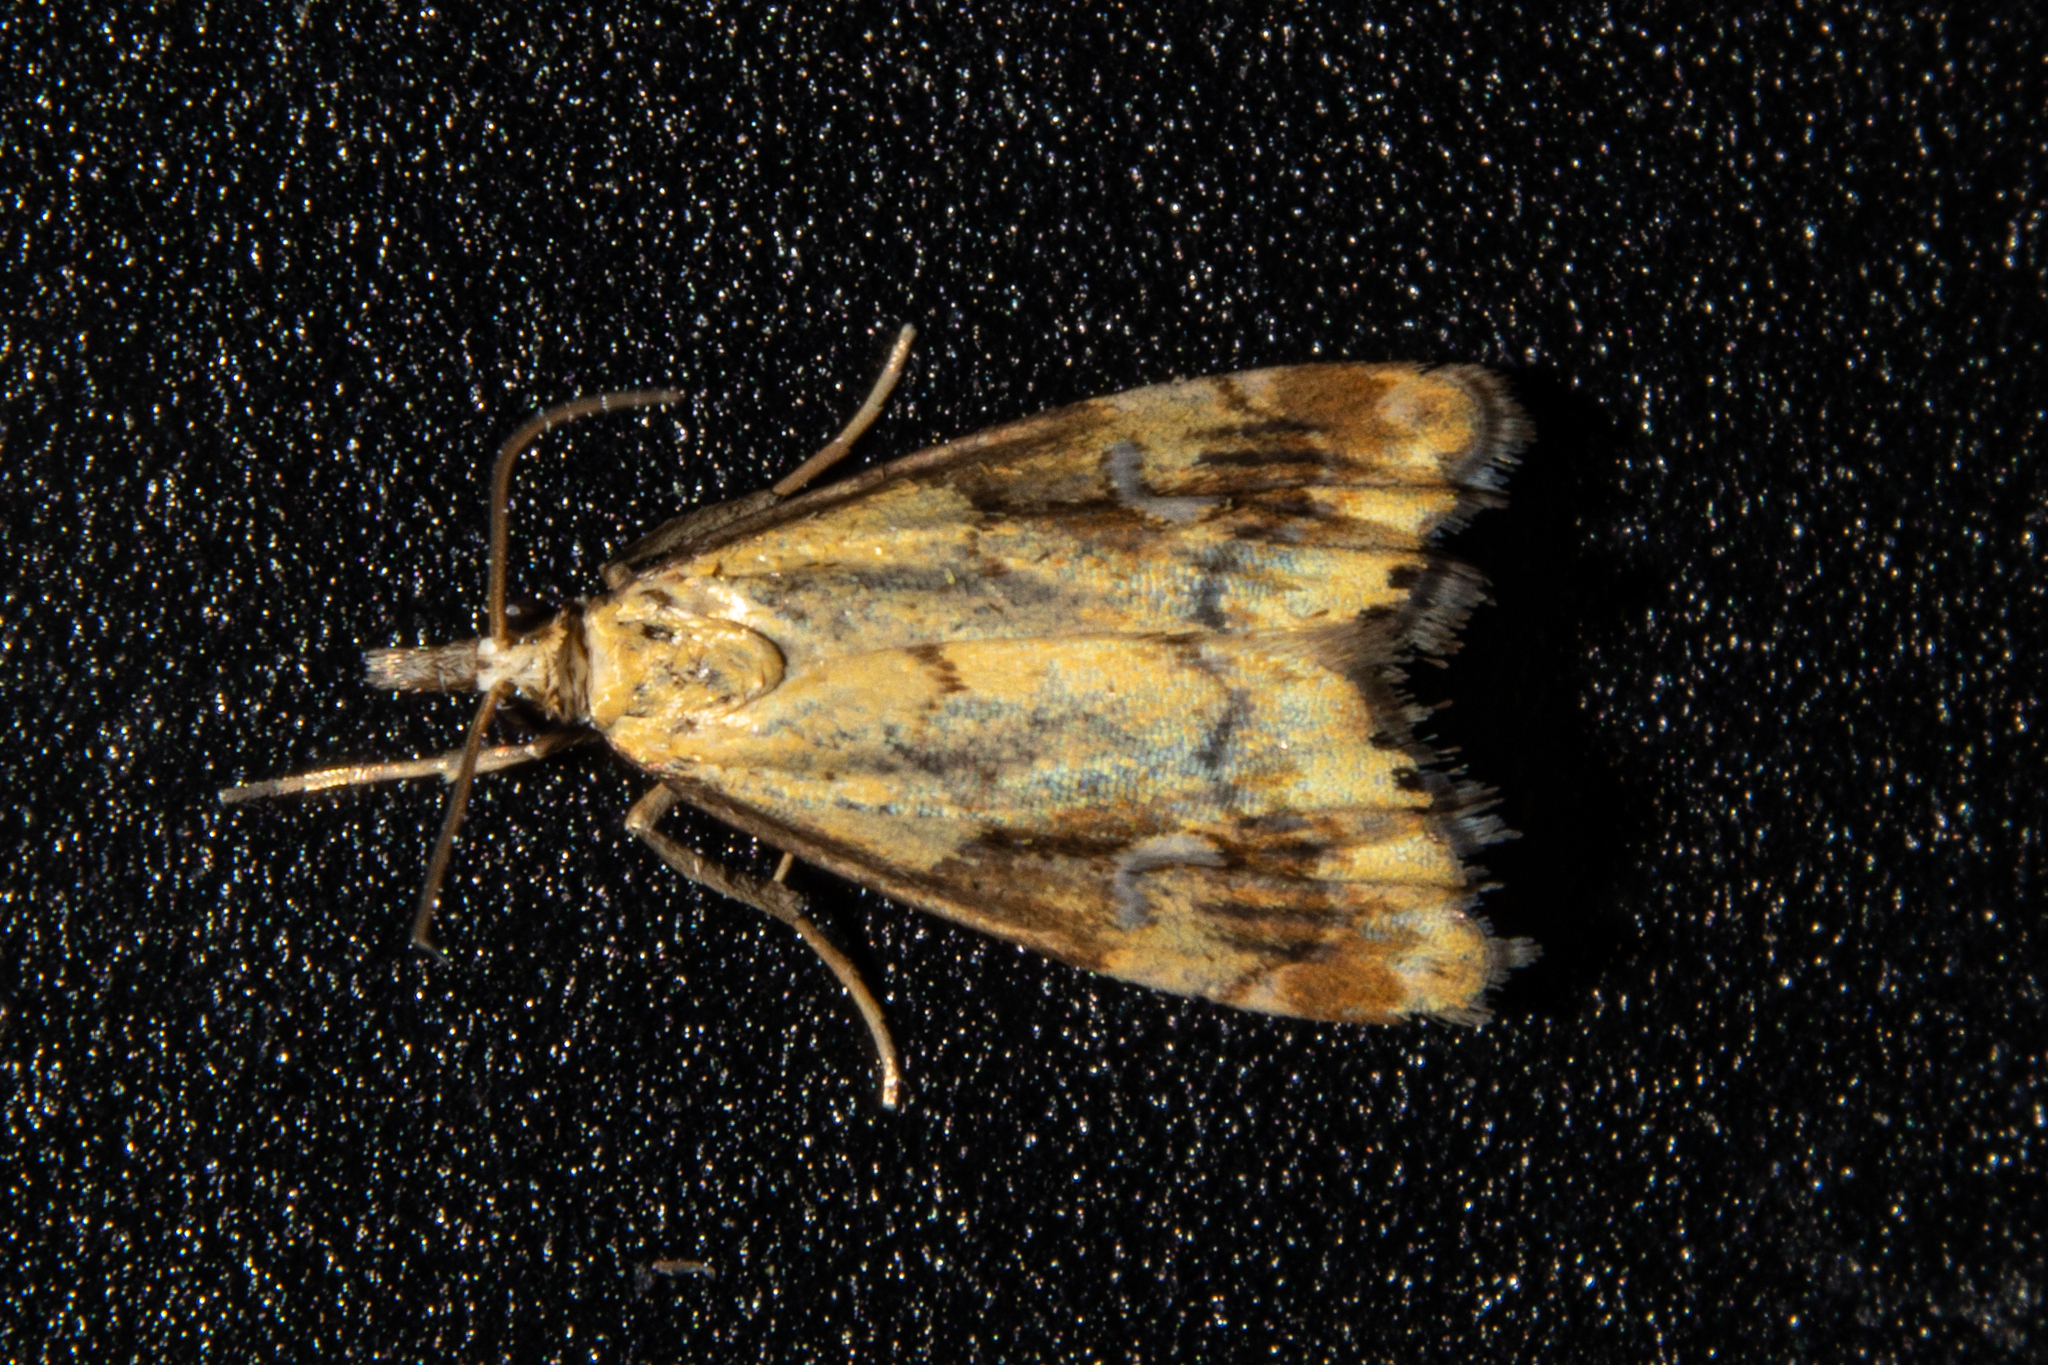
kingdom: Animalia
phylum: Arthropoda
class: Insecta
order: Lepidoptera
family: Crambidae
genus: Glaucocharis
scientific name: Glaucocharis lepidella
